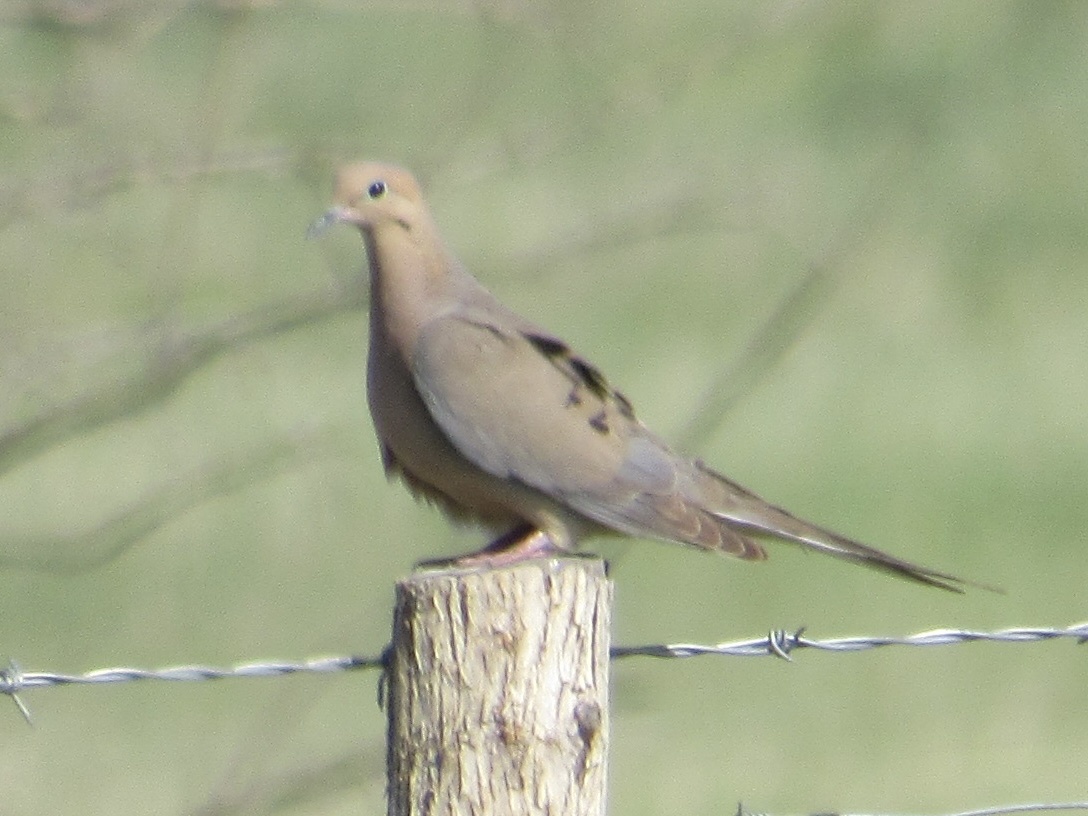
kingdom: Animalia
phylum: Chordata
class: Aves
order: Columbiformes
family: Columbidae
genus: Zenaida
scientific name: Zenaida macroura
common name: Mourning dove
